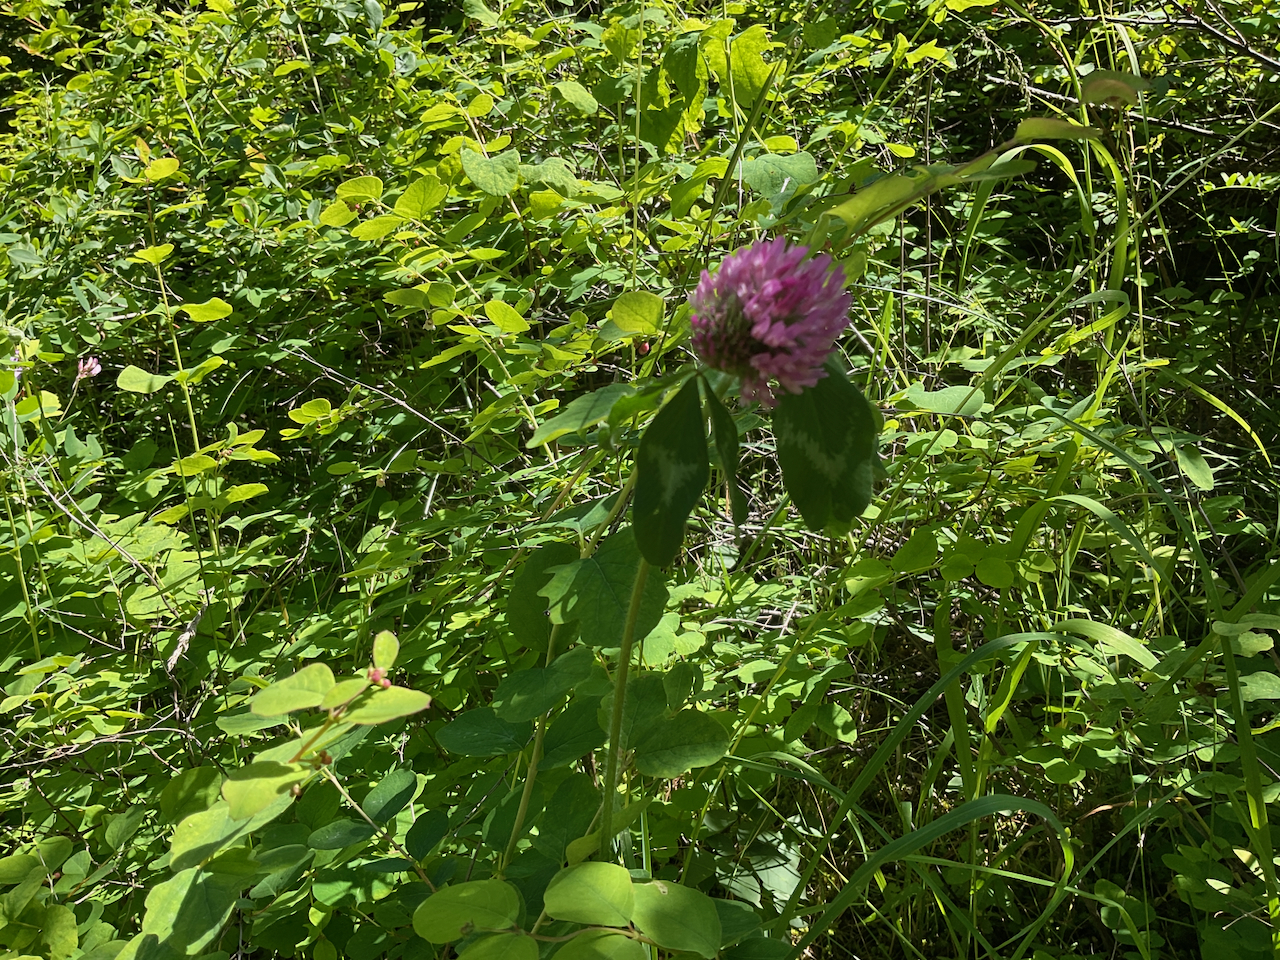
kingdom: Plantae
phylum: Tracheophyta
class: Magnoliopsida
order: Fabales
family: Fabaceae
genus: Trifolium
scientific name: Trifolium pratense
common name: Red clover
